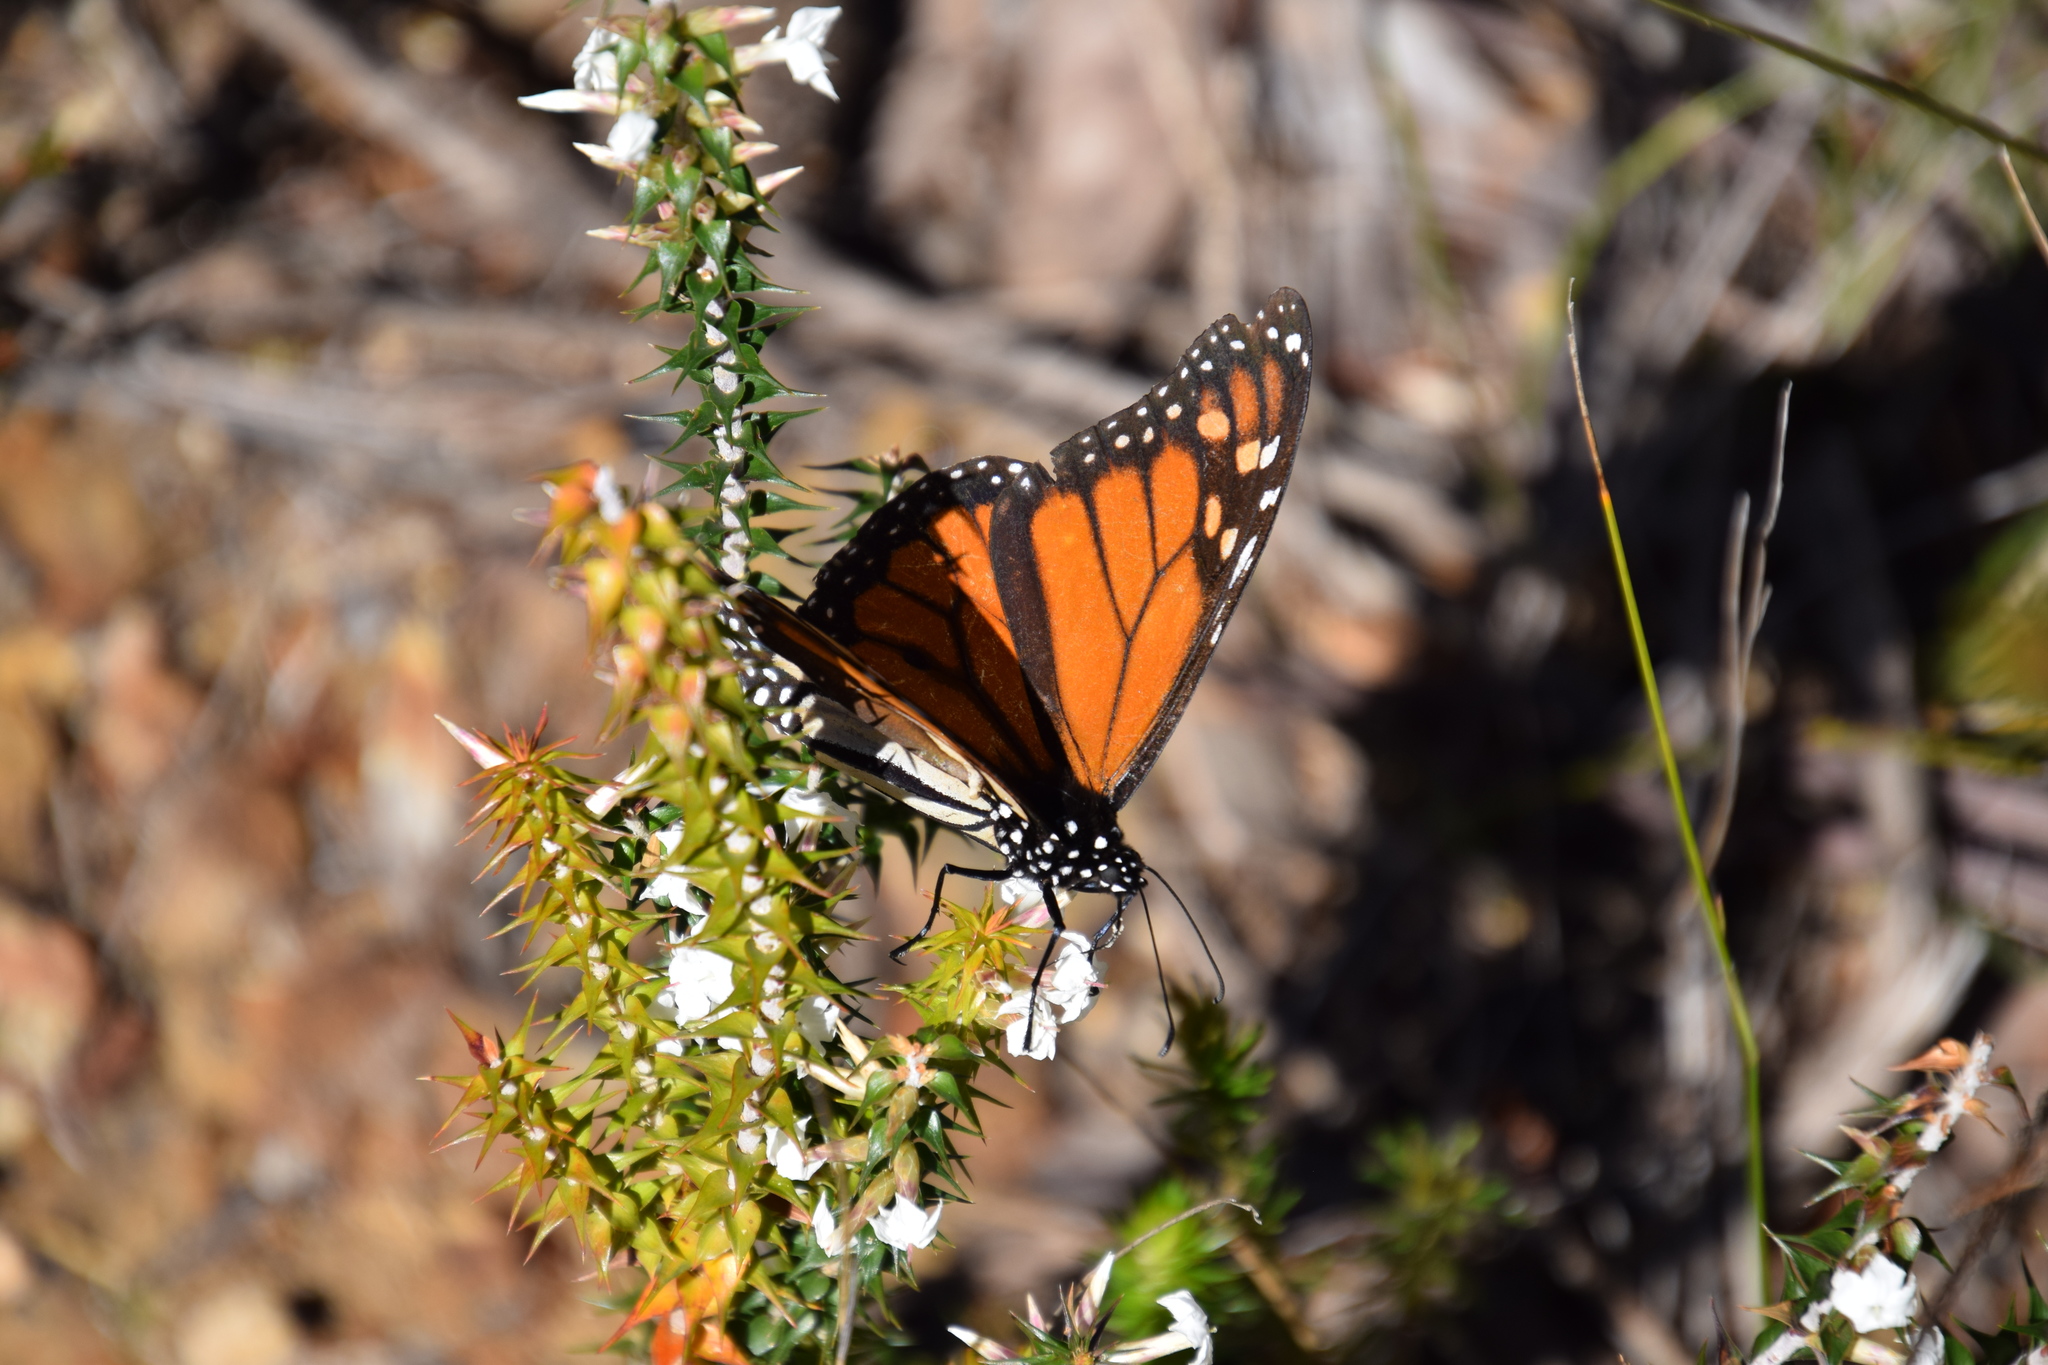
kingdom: Animalia
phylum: Arthropoda
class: Insecta
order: Lepidoptera
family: Nymphalidae
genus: Danaus
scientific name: Danaus plexippus
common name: Monarch
